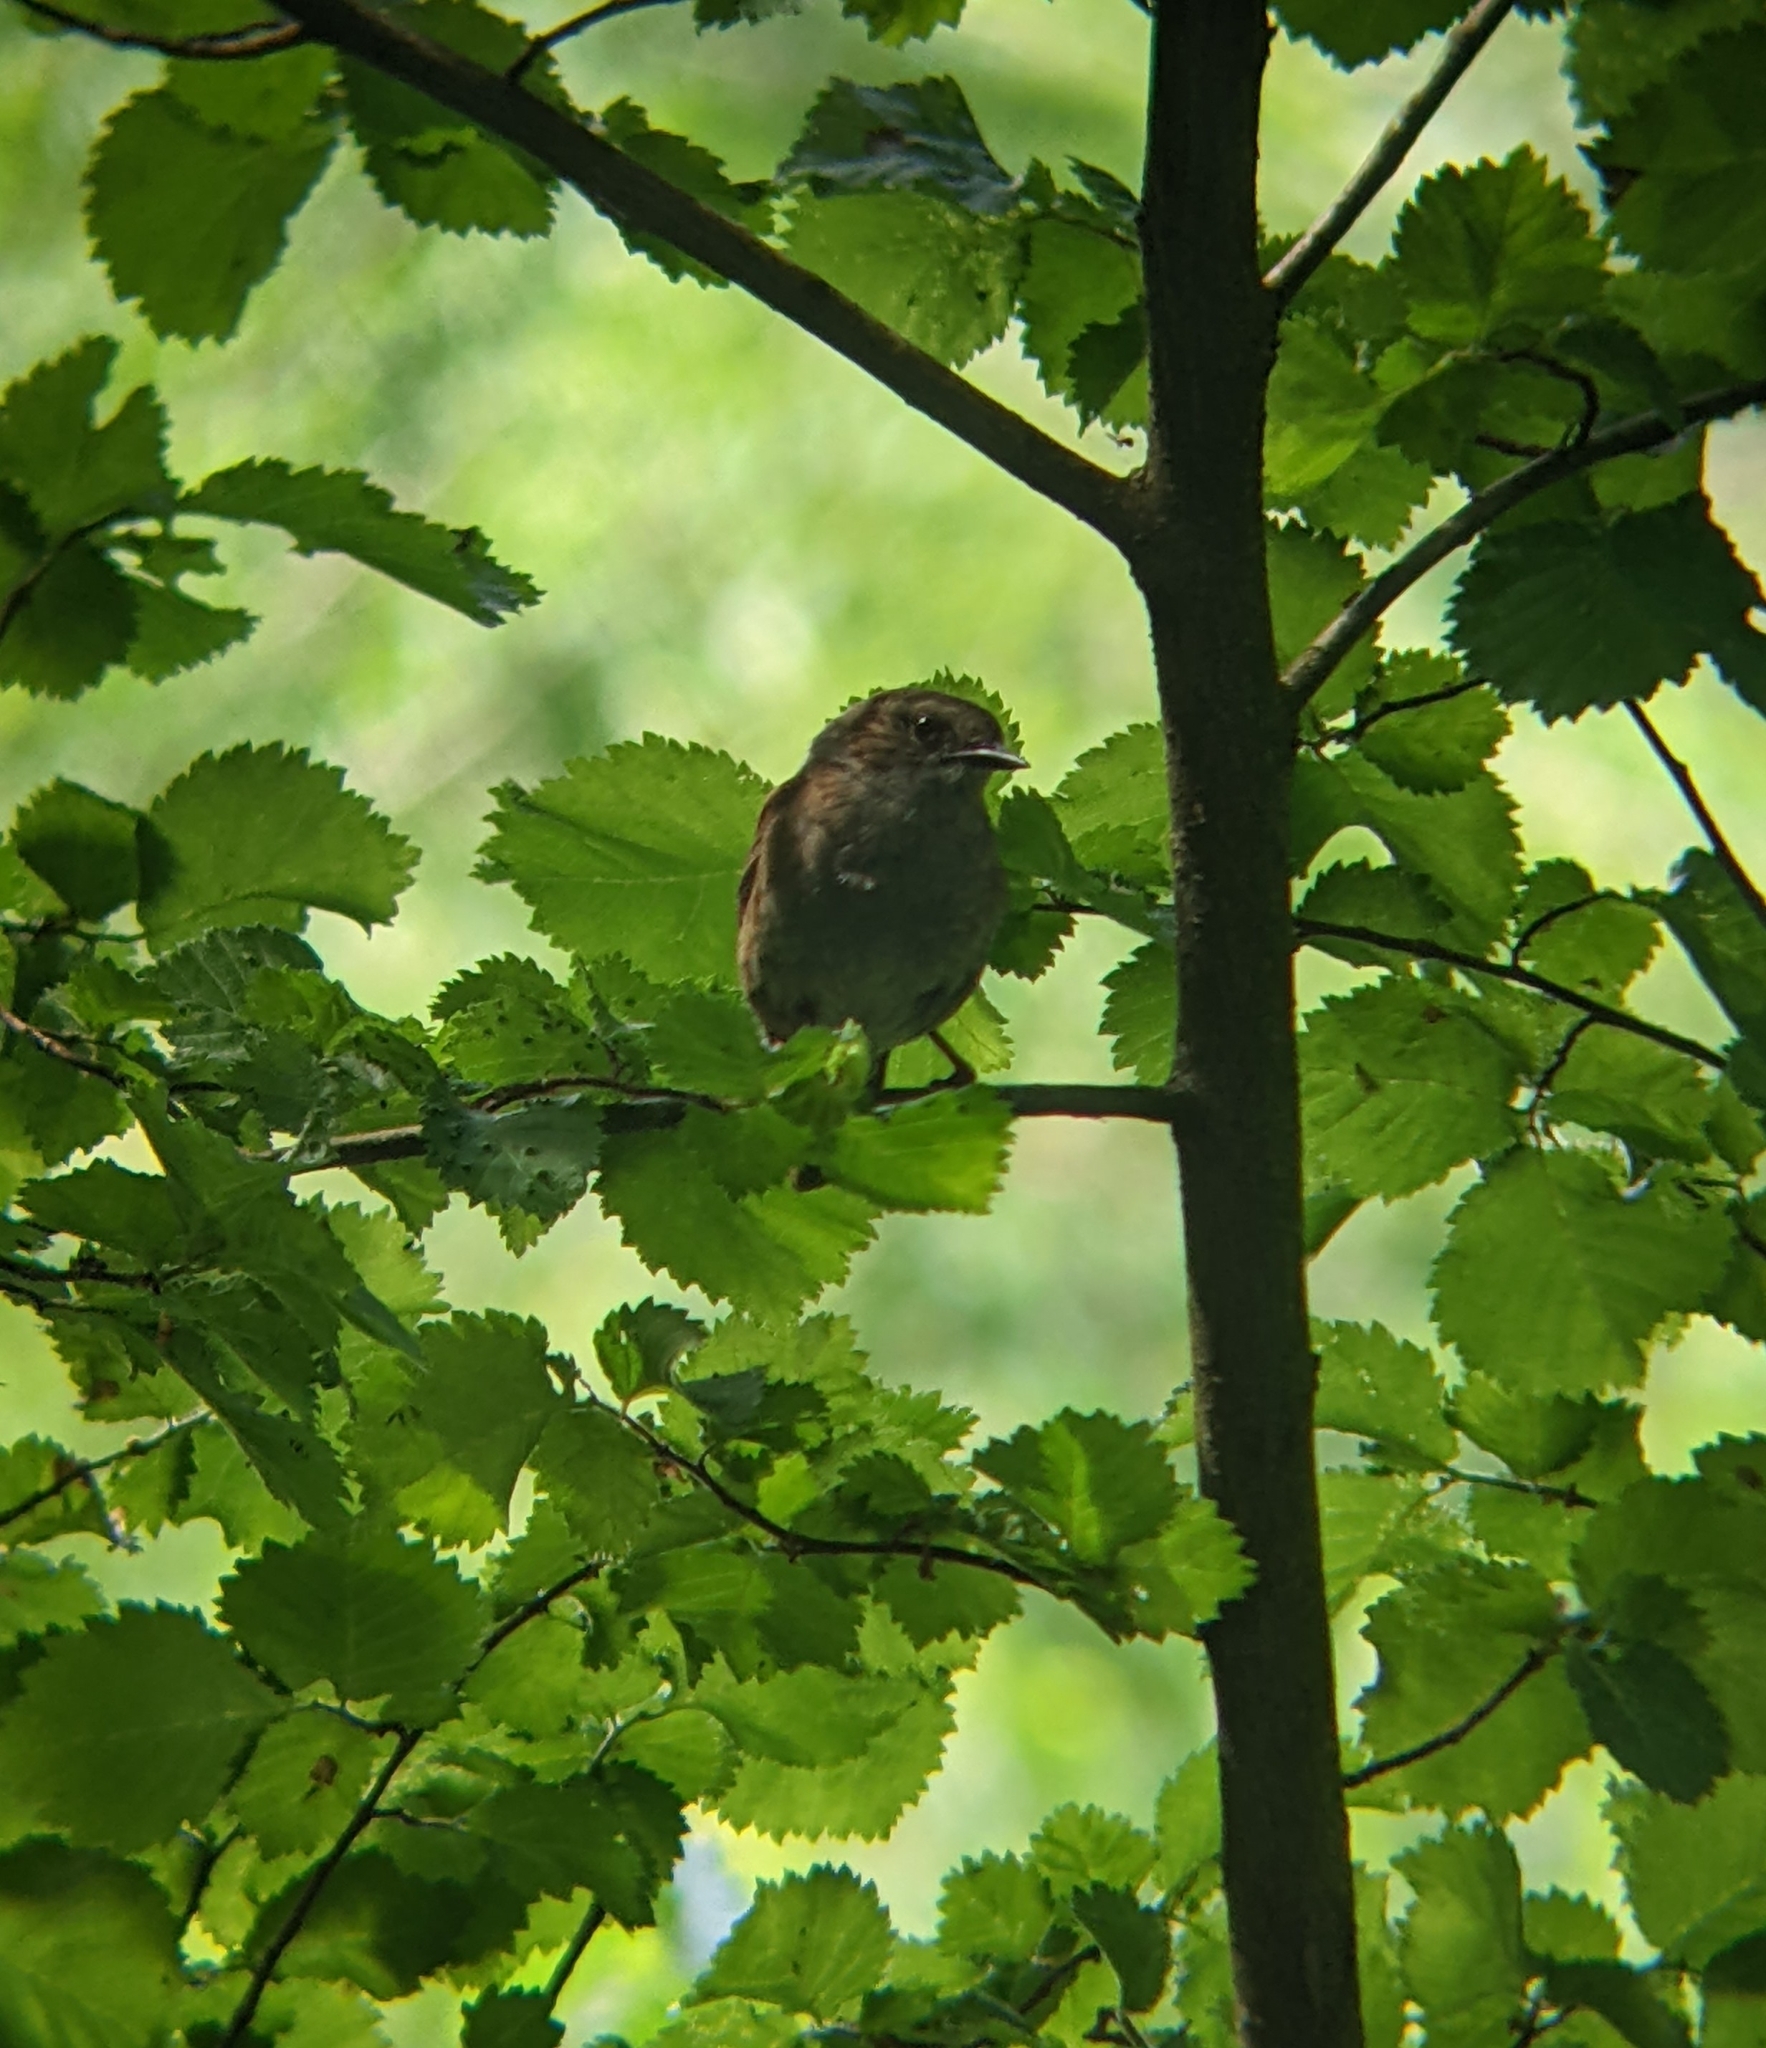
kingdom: Animalia
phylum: Chordata
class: Aves
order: Passeriformes
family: Prunellidae
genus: Prunella
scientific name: Prunella modularis
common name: Dunnock
